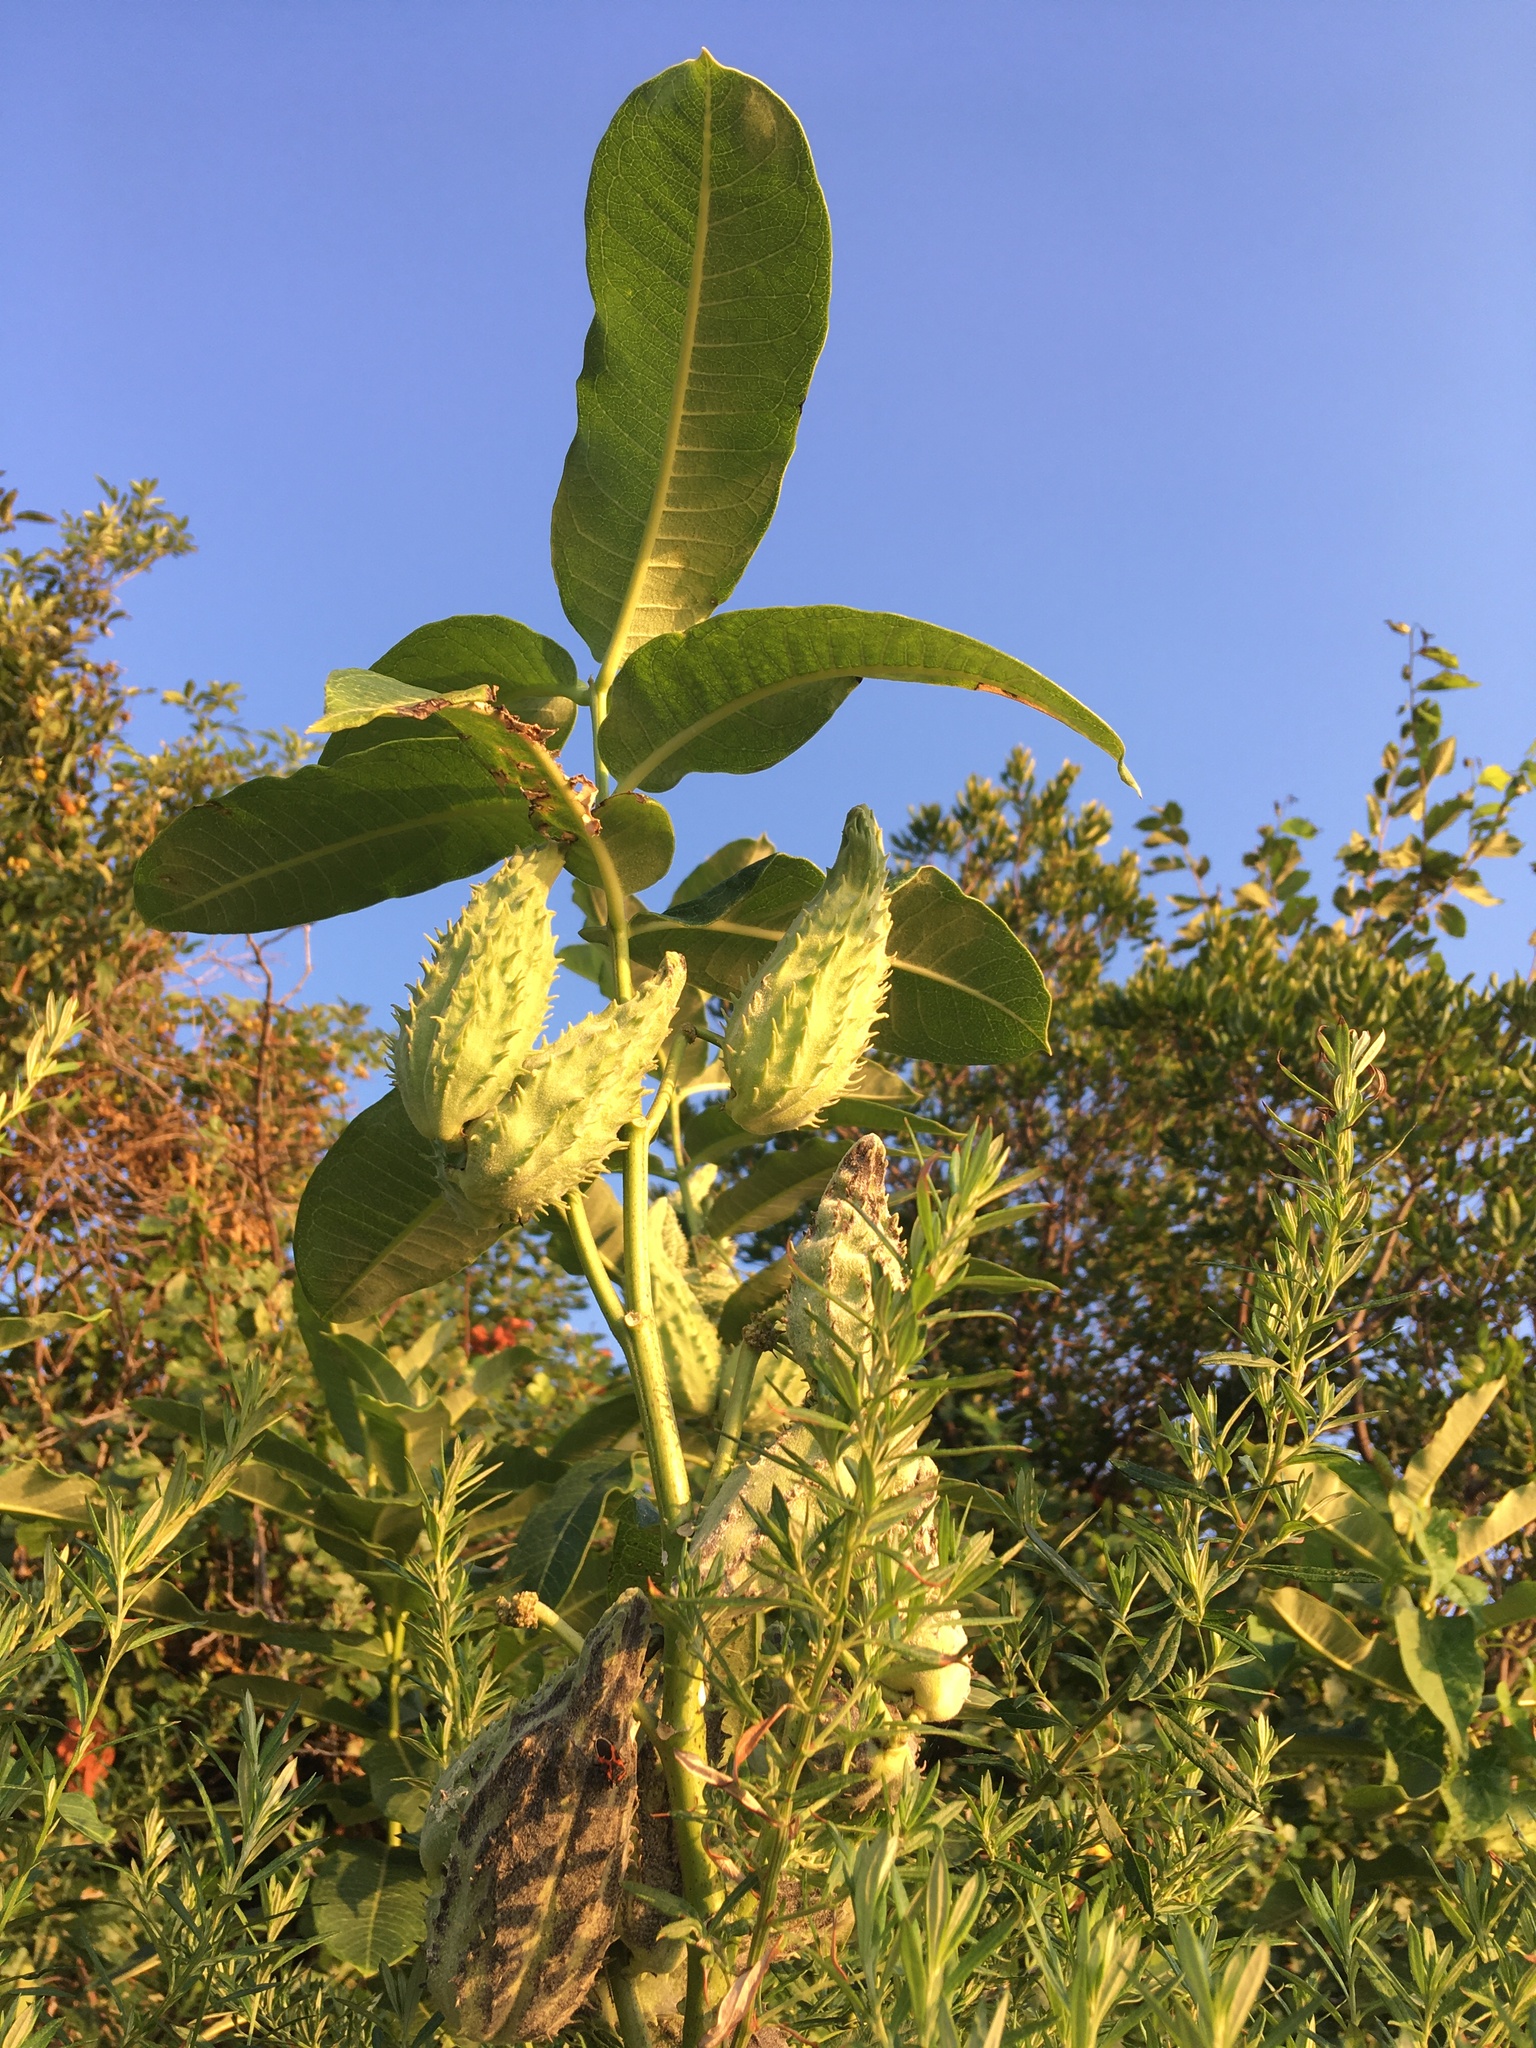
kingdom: Plantae
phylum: Tracheophyta
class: Magnoliopsida
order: Gentianales
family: Apocynaceae
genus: Asclepias
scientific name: Asclepias syriaca
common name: Common milkweed
